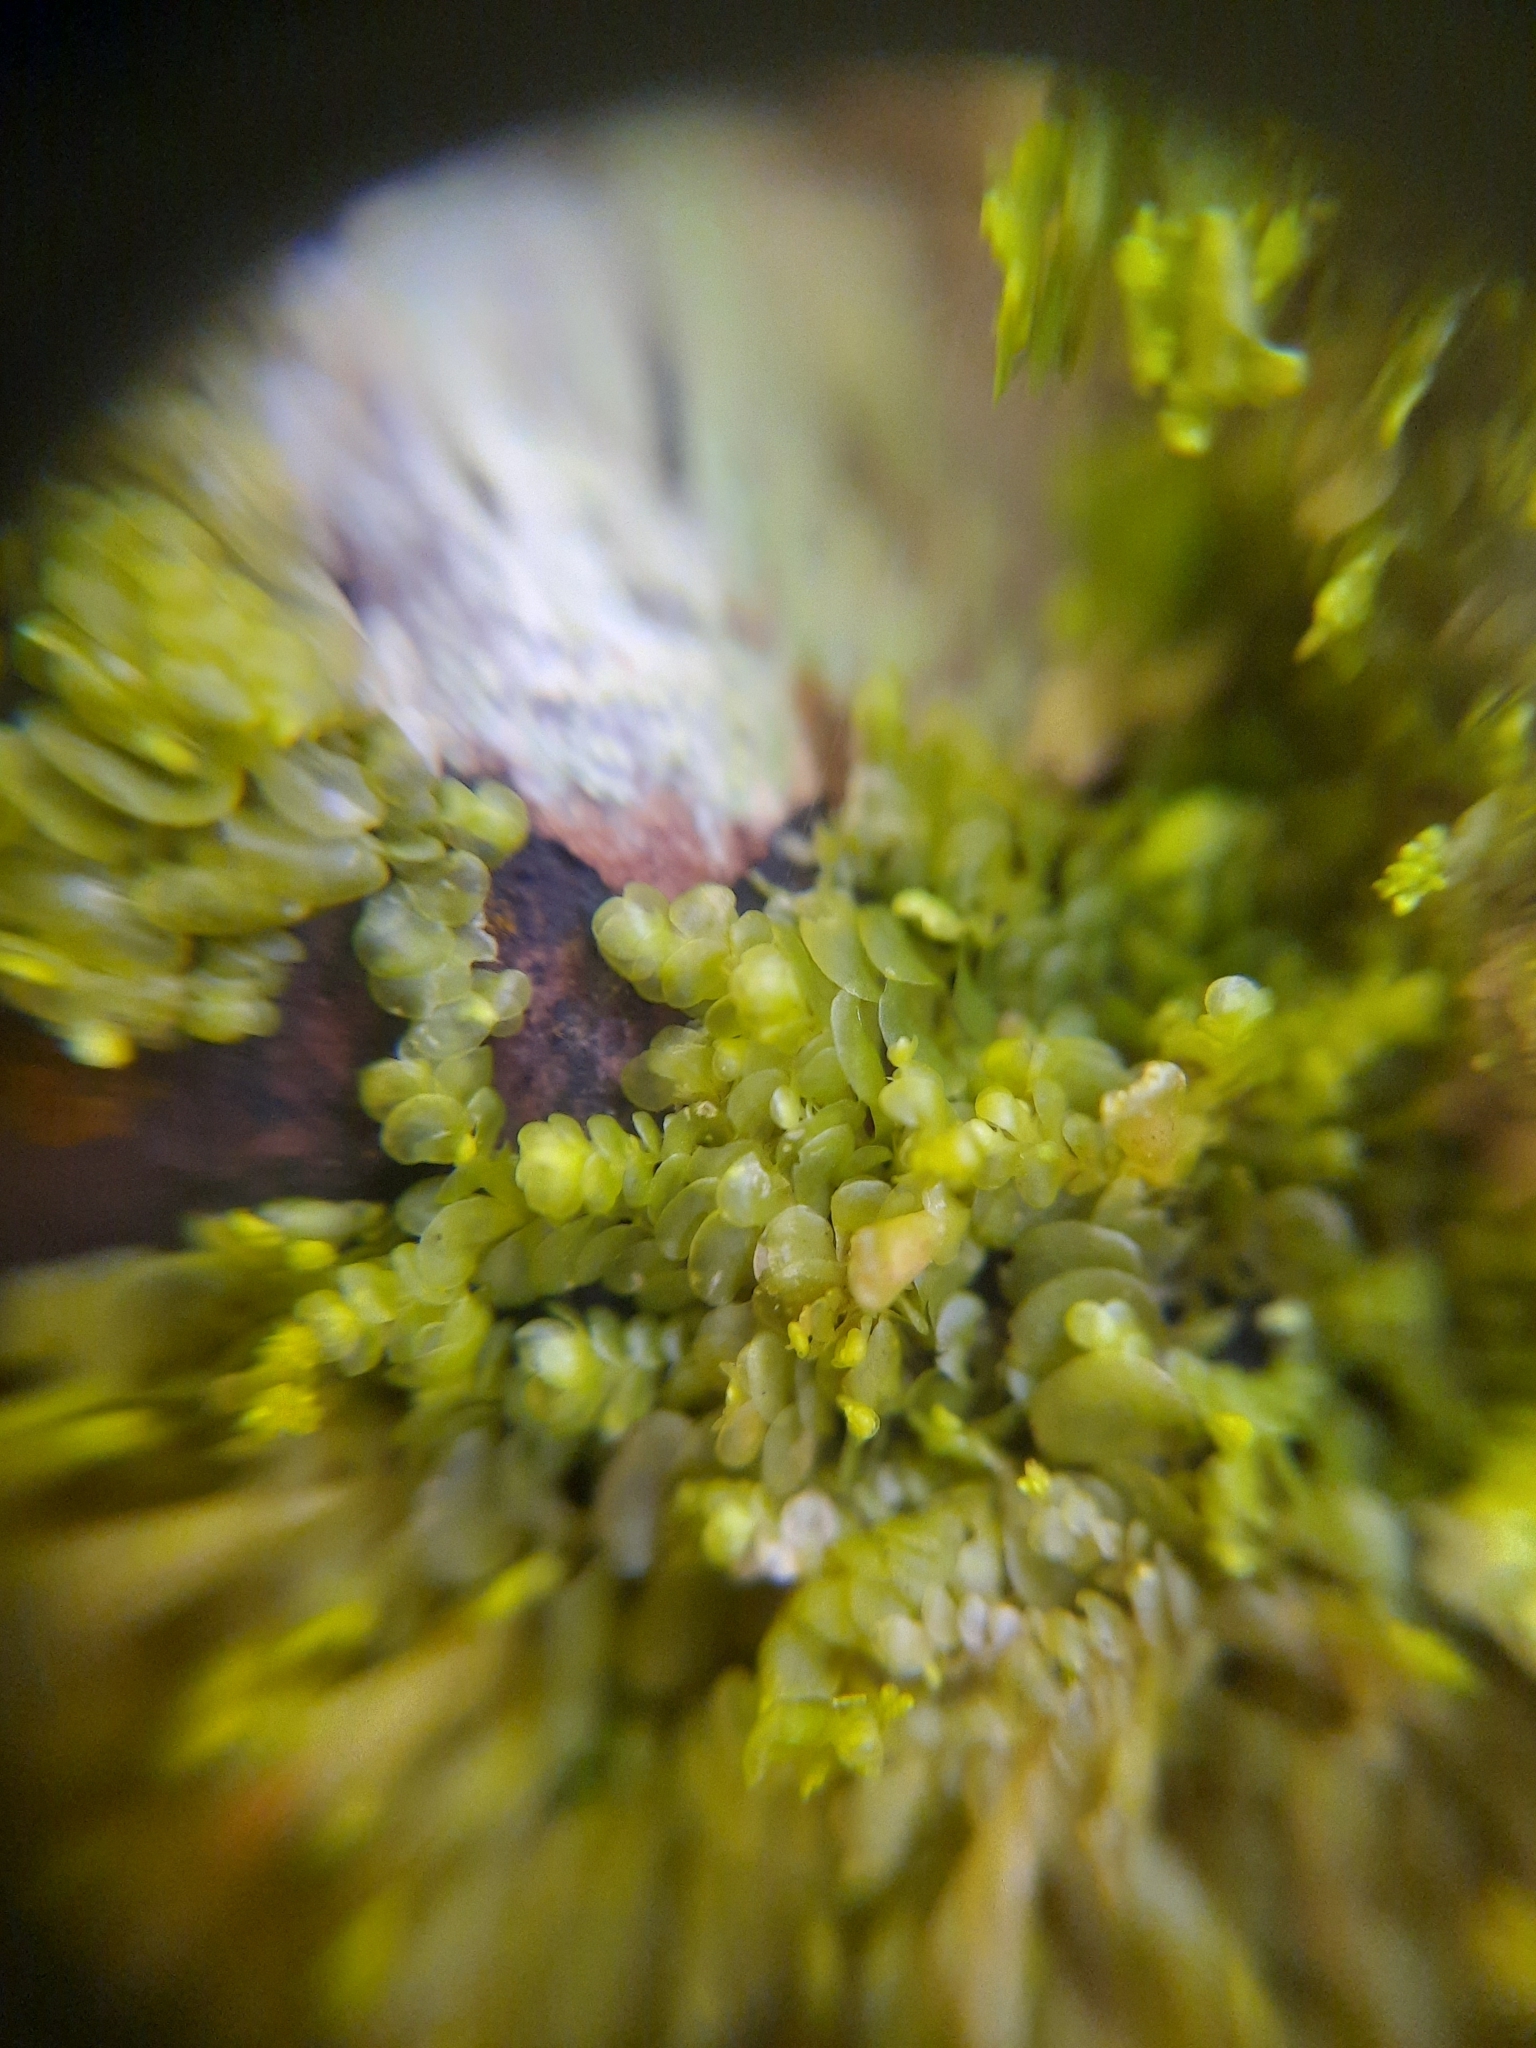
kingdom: Plantae
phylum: Marchantiophyta
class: Jungermanniopsida
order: Porellales
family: Radulaceae
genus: Radula
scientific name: Radula physoloba
